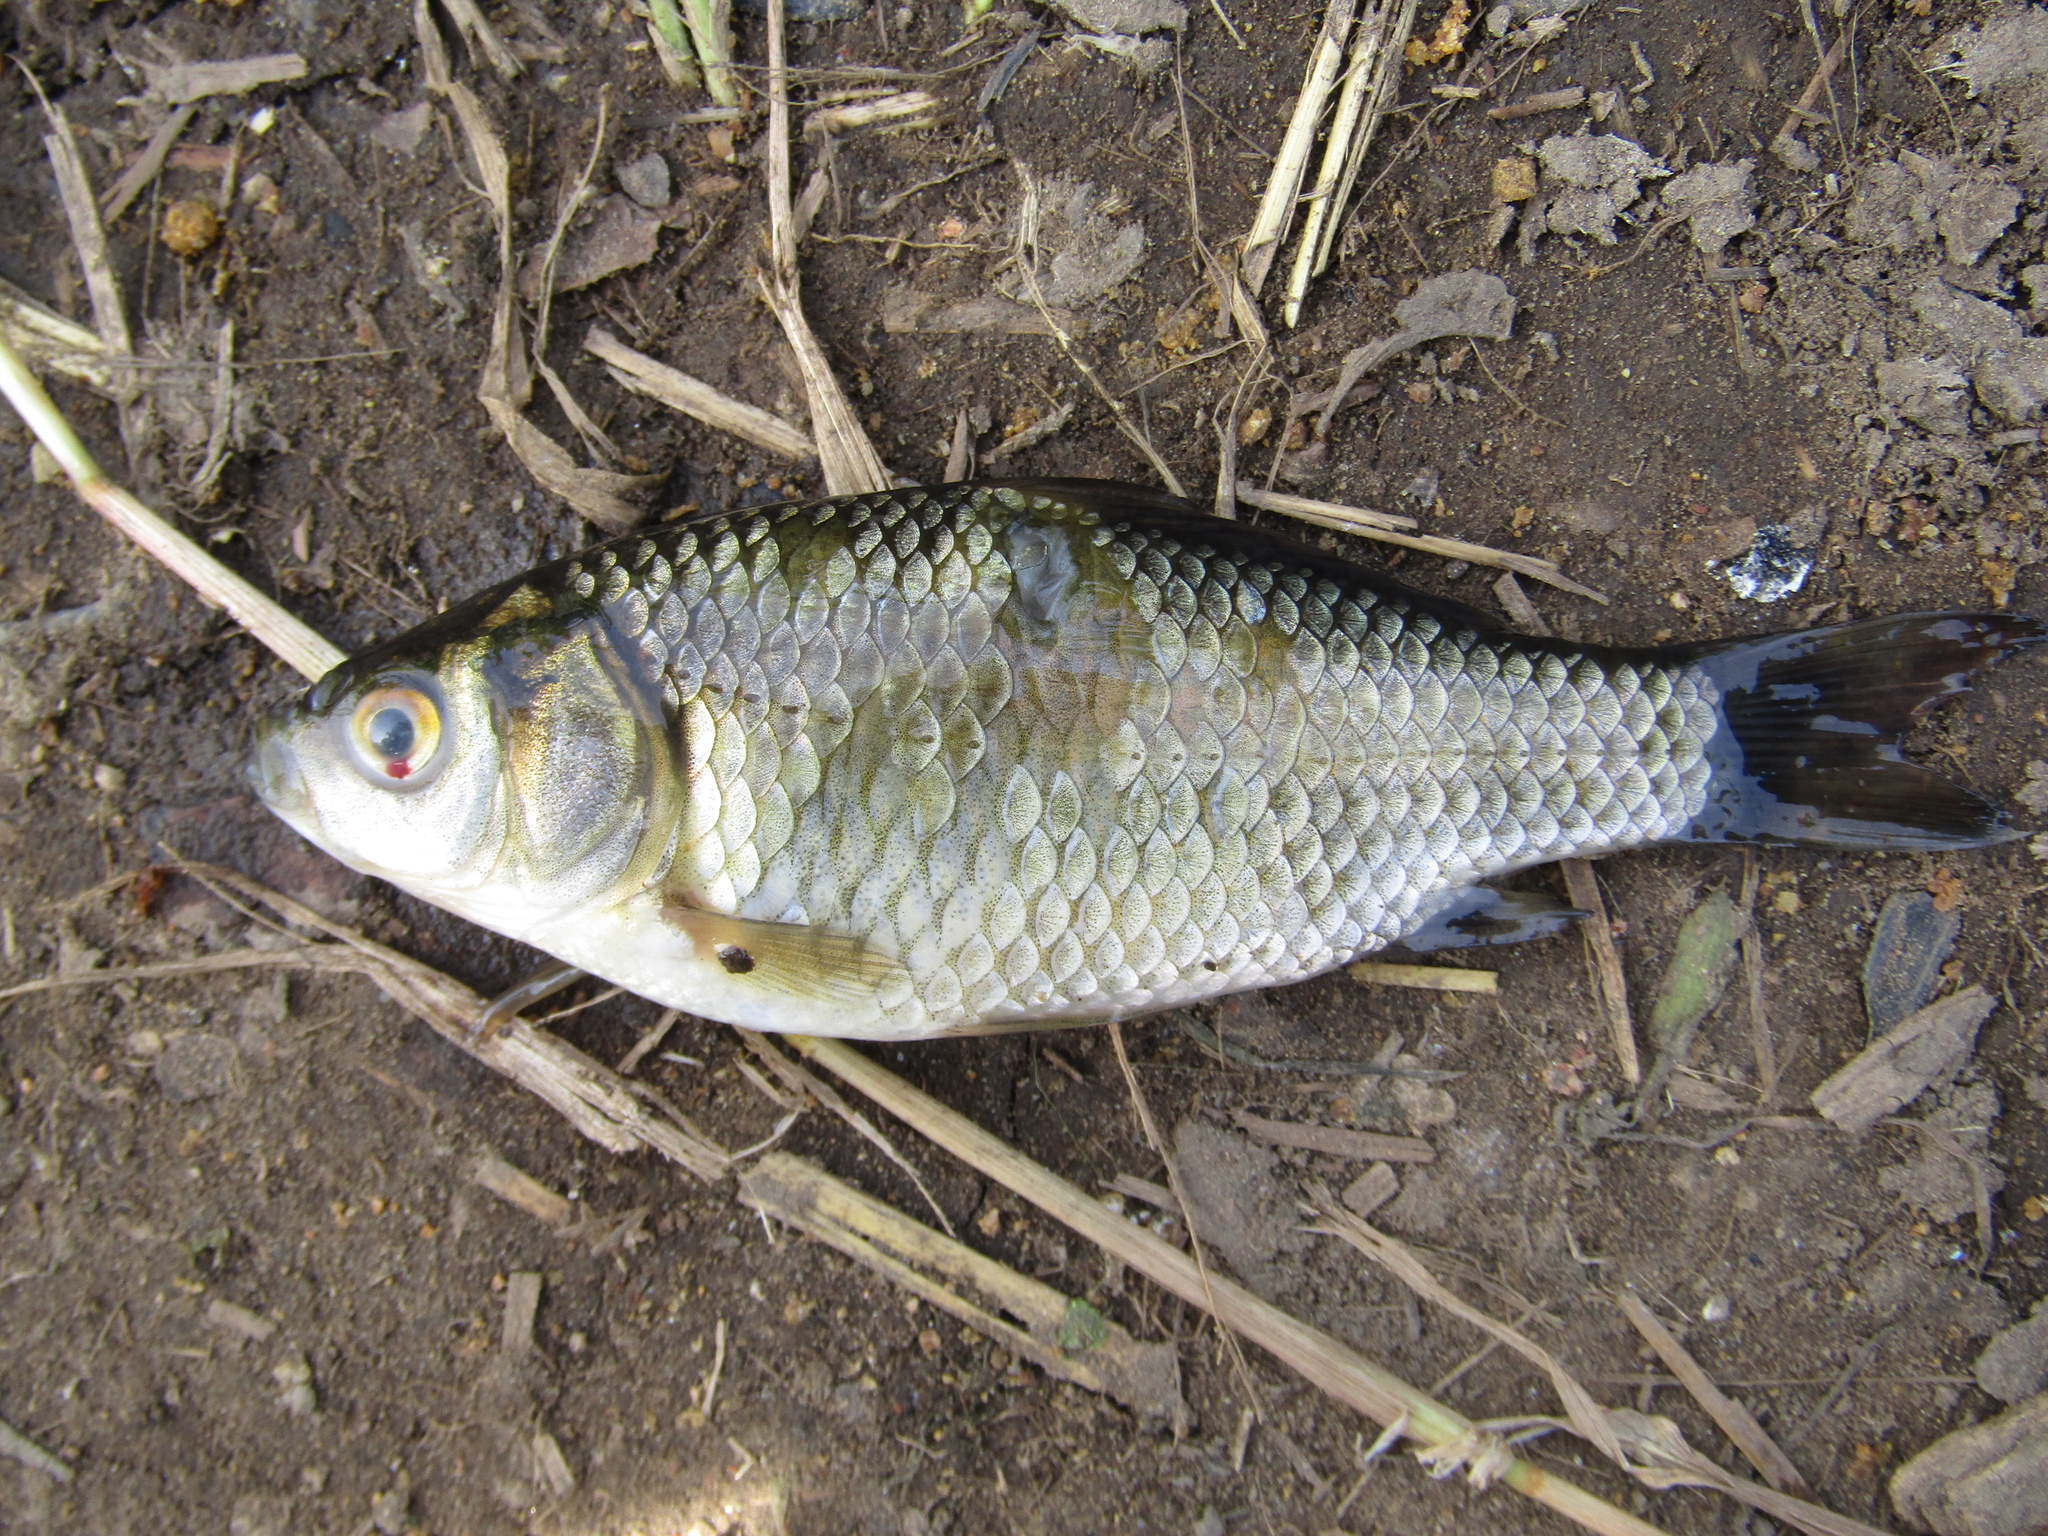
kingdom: Animalia
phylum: Chordata
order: Cypriniformes
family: Cyprinidae
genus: Carassius
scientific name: Carassius gibelio
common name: Prussian carp
